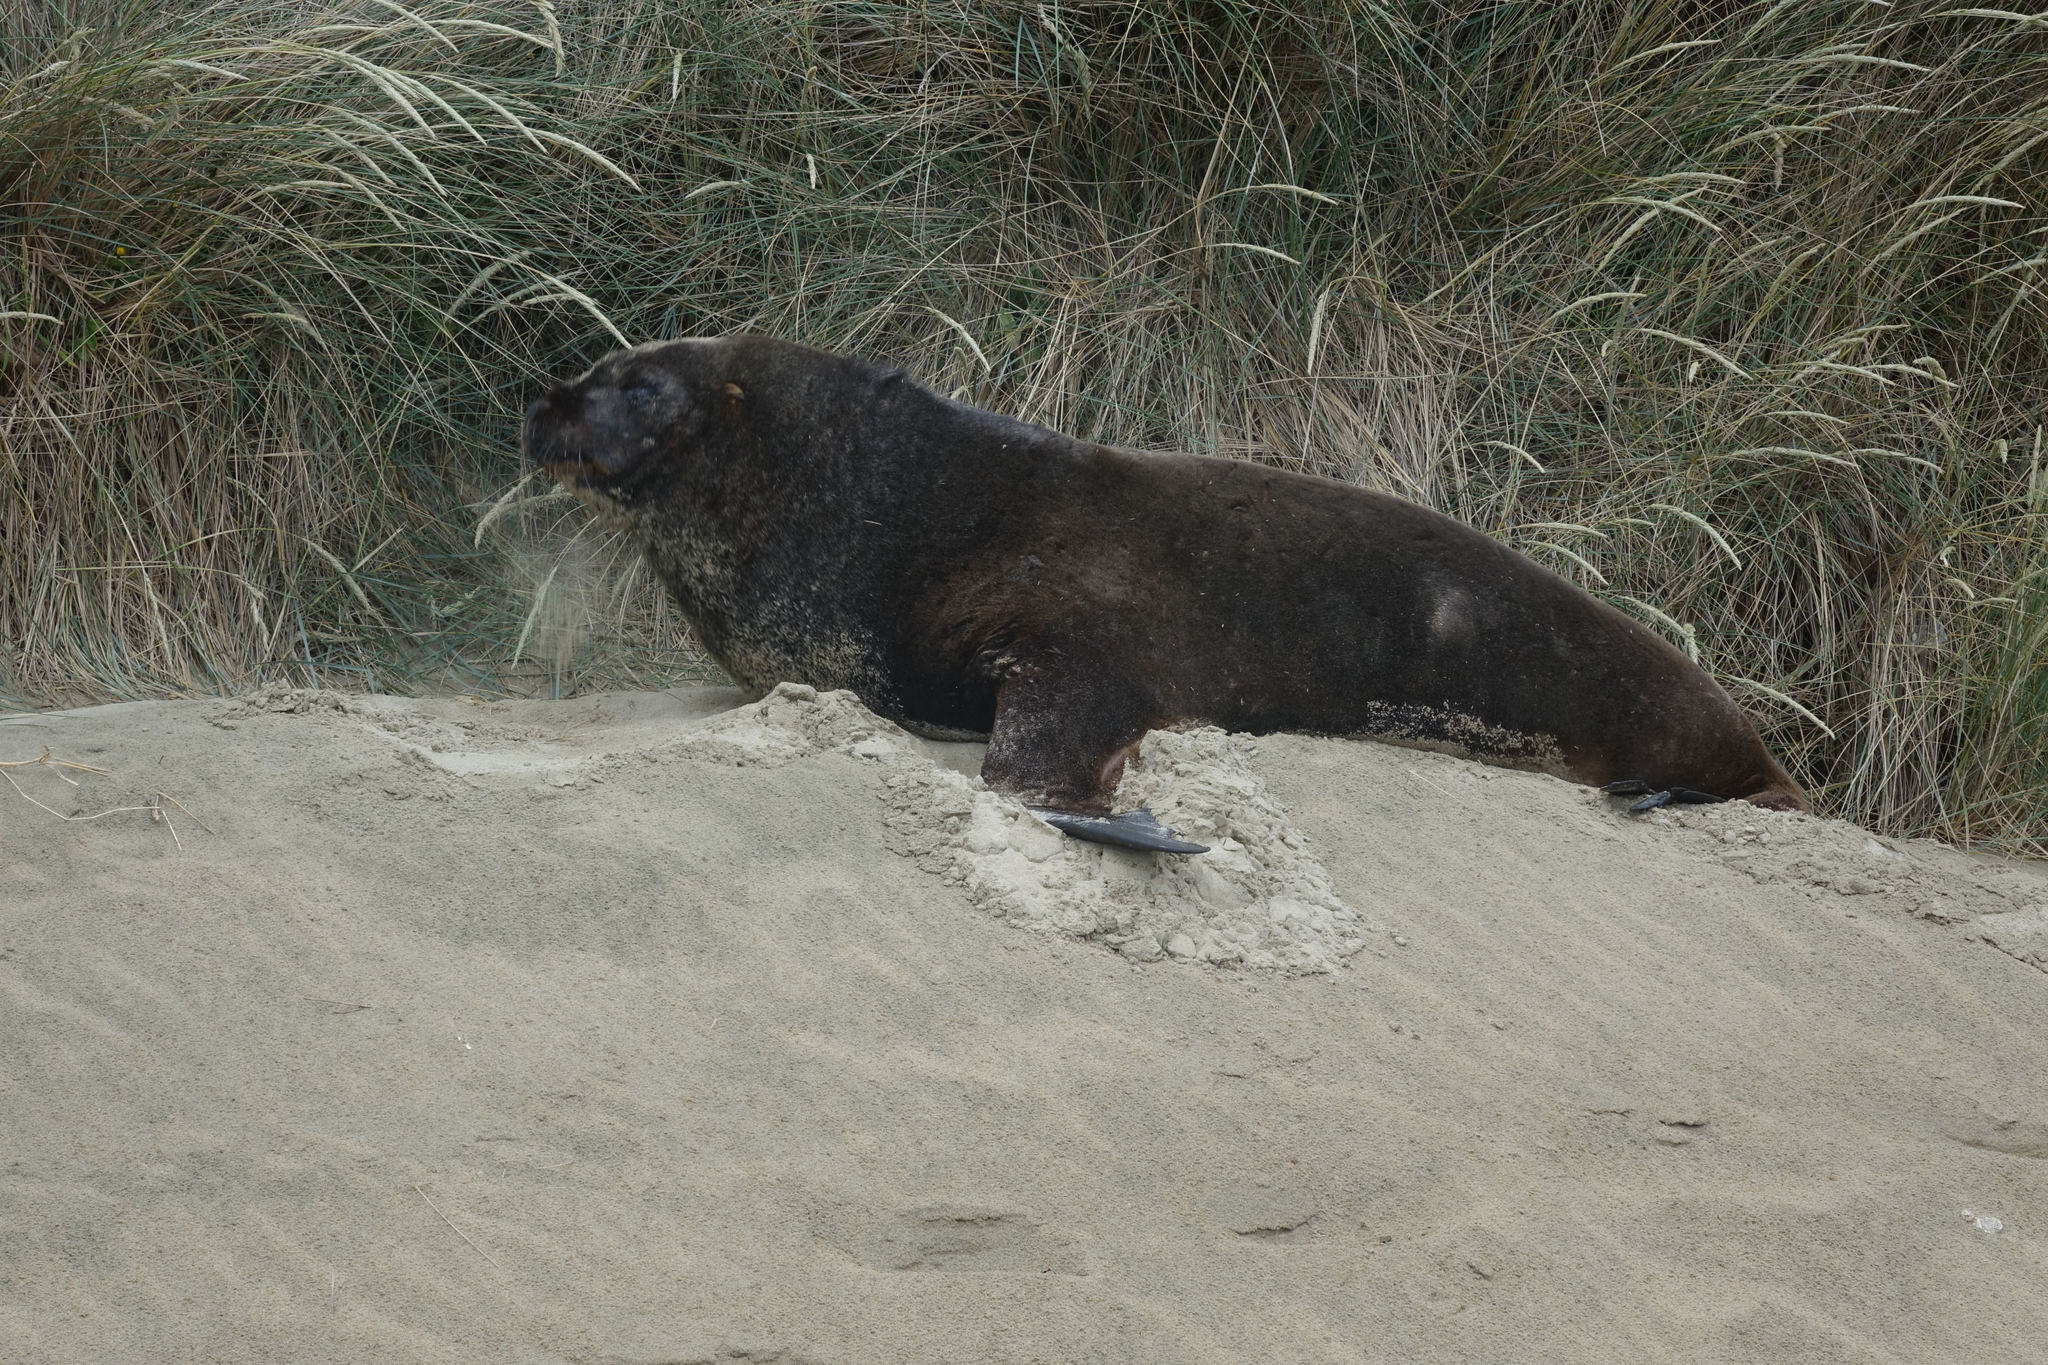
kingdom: Animalia
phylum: Chordata
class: Mammalia
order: Carnivora
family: Otariidae
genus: Phocarctos
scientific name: Phocarctos hookeri
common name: New zealand sea lion
